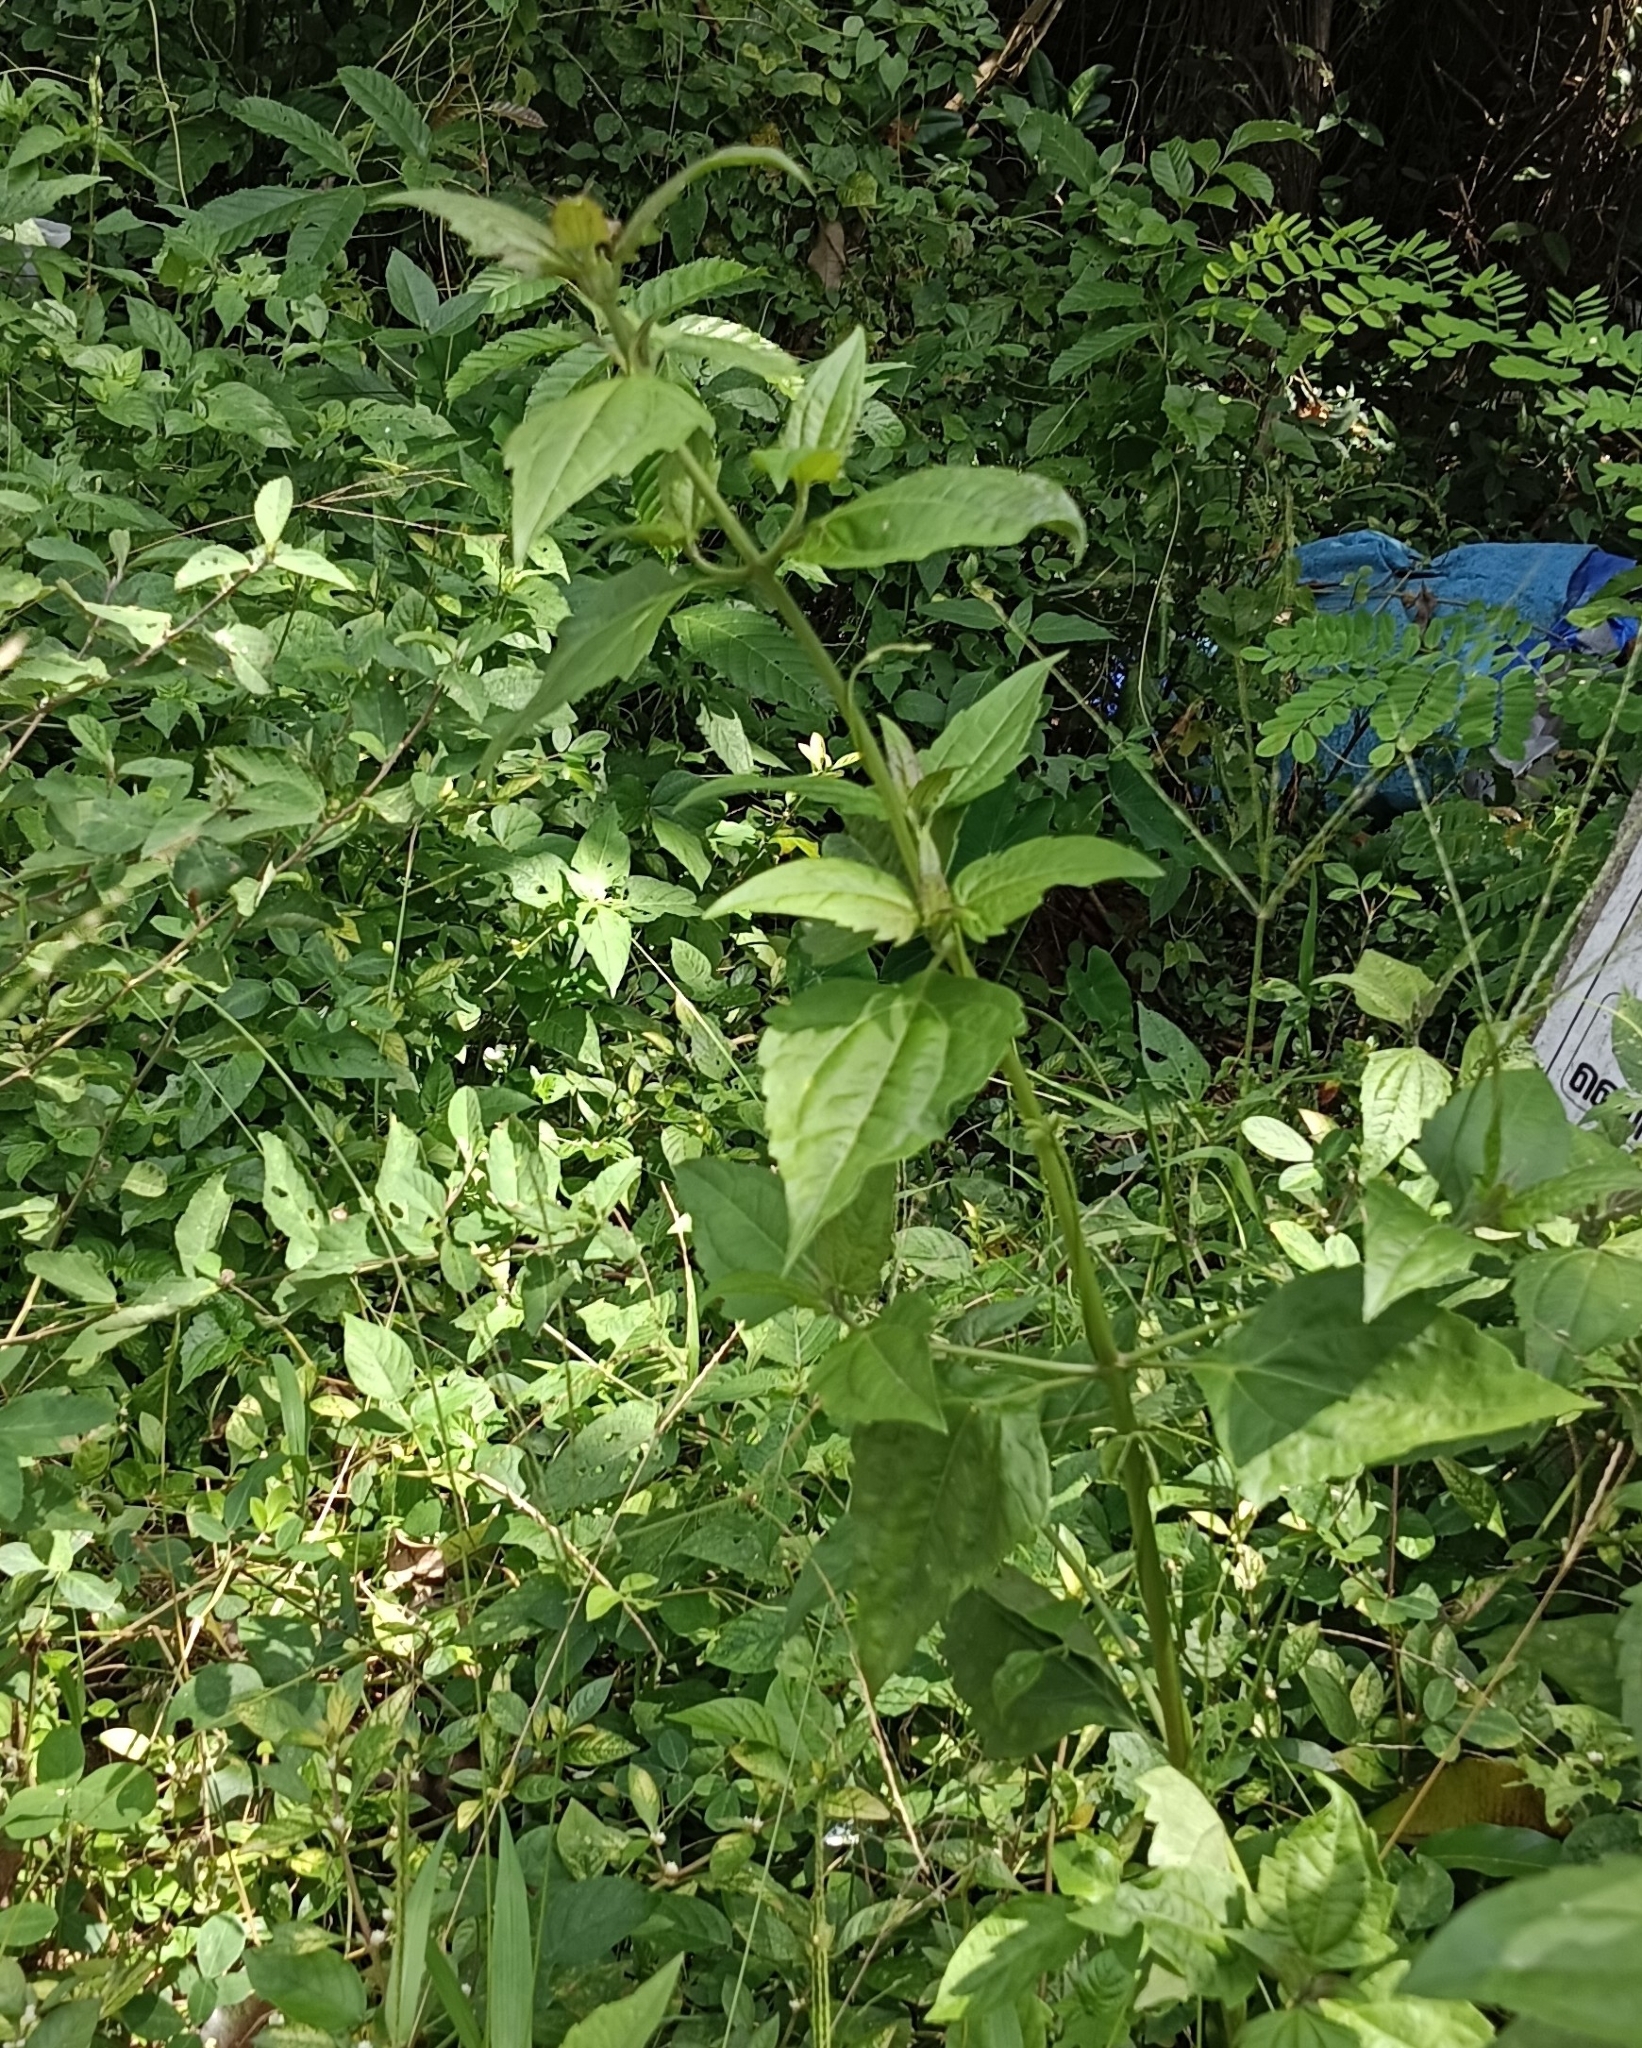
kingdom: Plantae
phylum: Tracheophyta
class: Magnoliopsida
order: Asterales
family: Asteraceae
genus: Chromolaena
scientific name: Chromolaena odorata
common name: Siamweed
